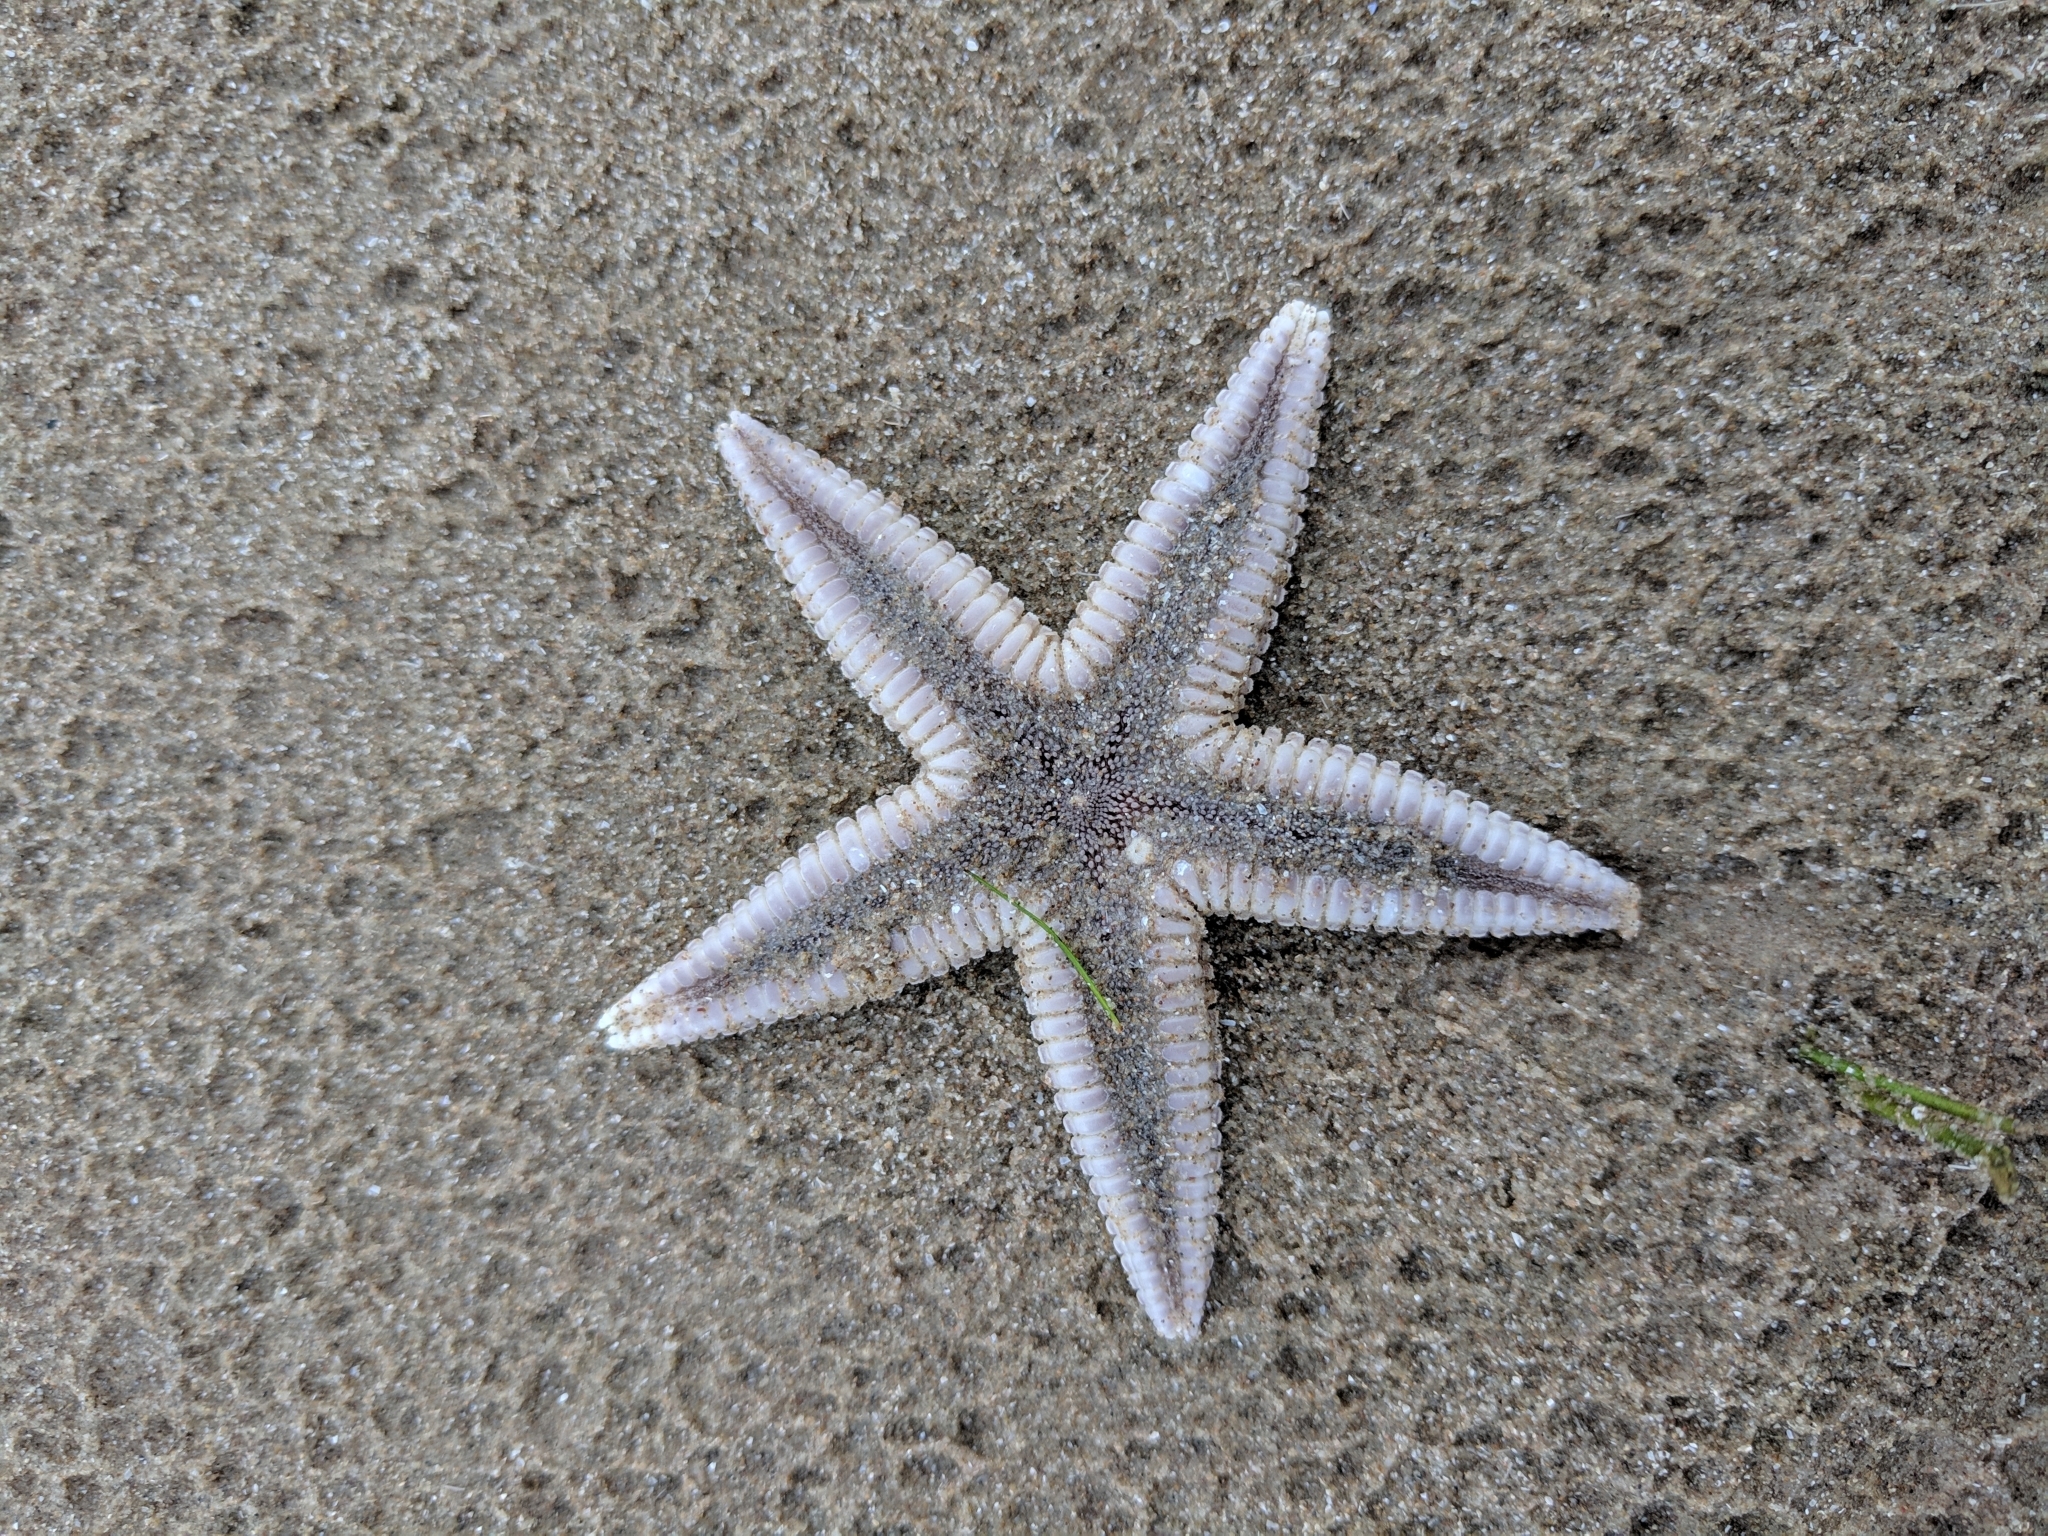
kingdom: Animalia
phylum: Echinodermata
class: Asteroidea
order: Paxillosida
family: Astropectinidae
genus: Astropecten
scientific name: Astropecten duplicatus
